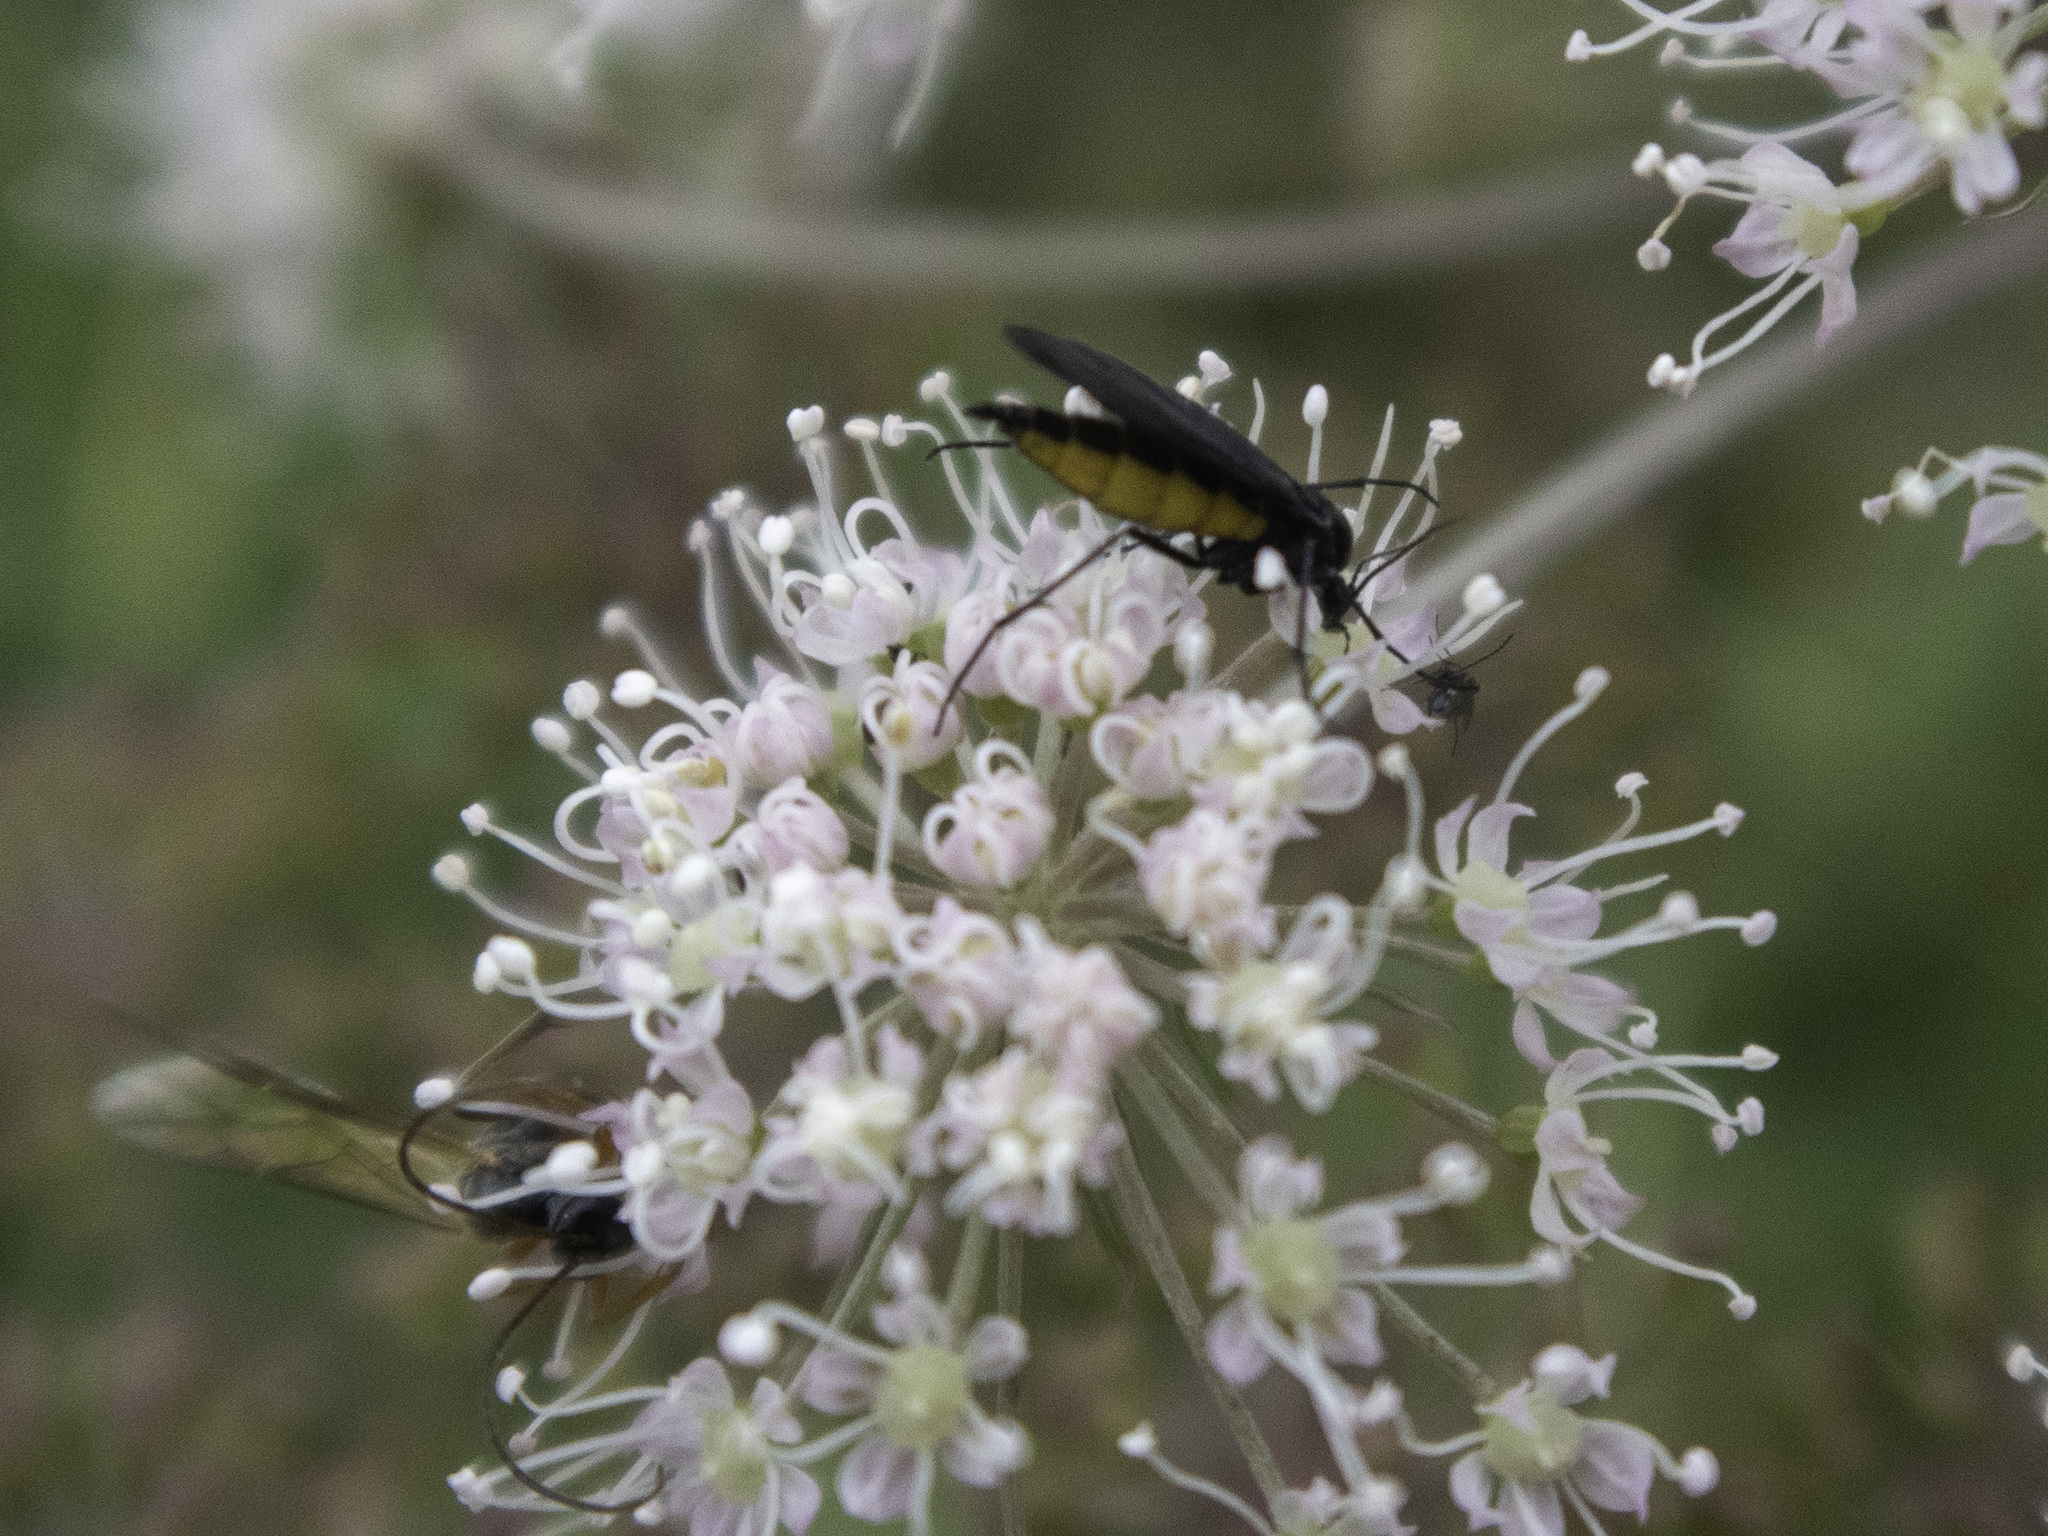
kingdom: Animalia
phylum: Arthropoda
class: Insecta
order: Diptera
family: Sciaridae
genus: Sciara
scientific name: Sciara hemerobioides
